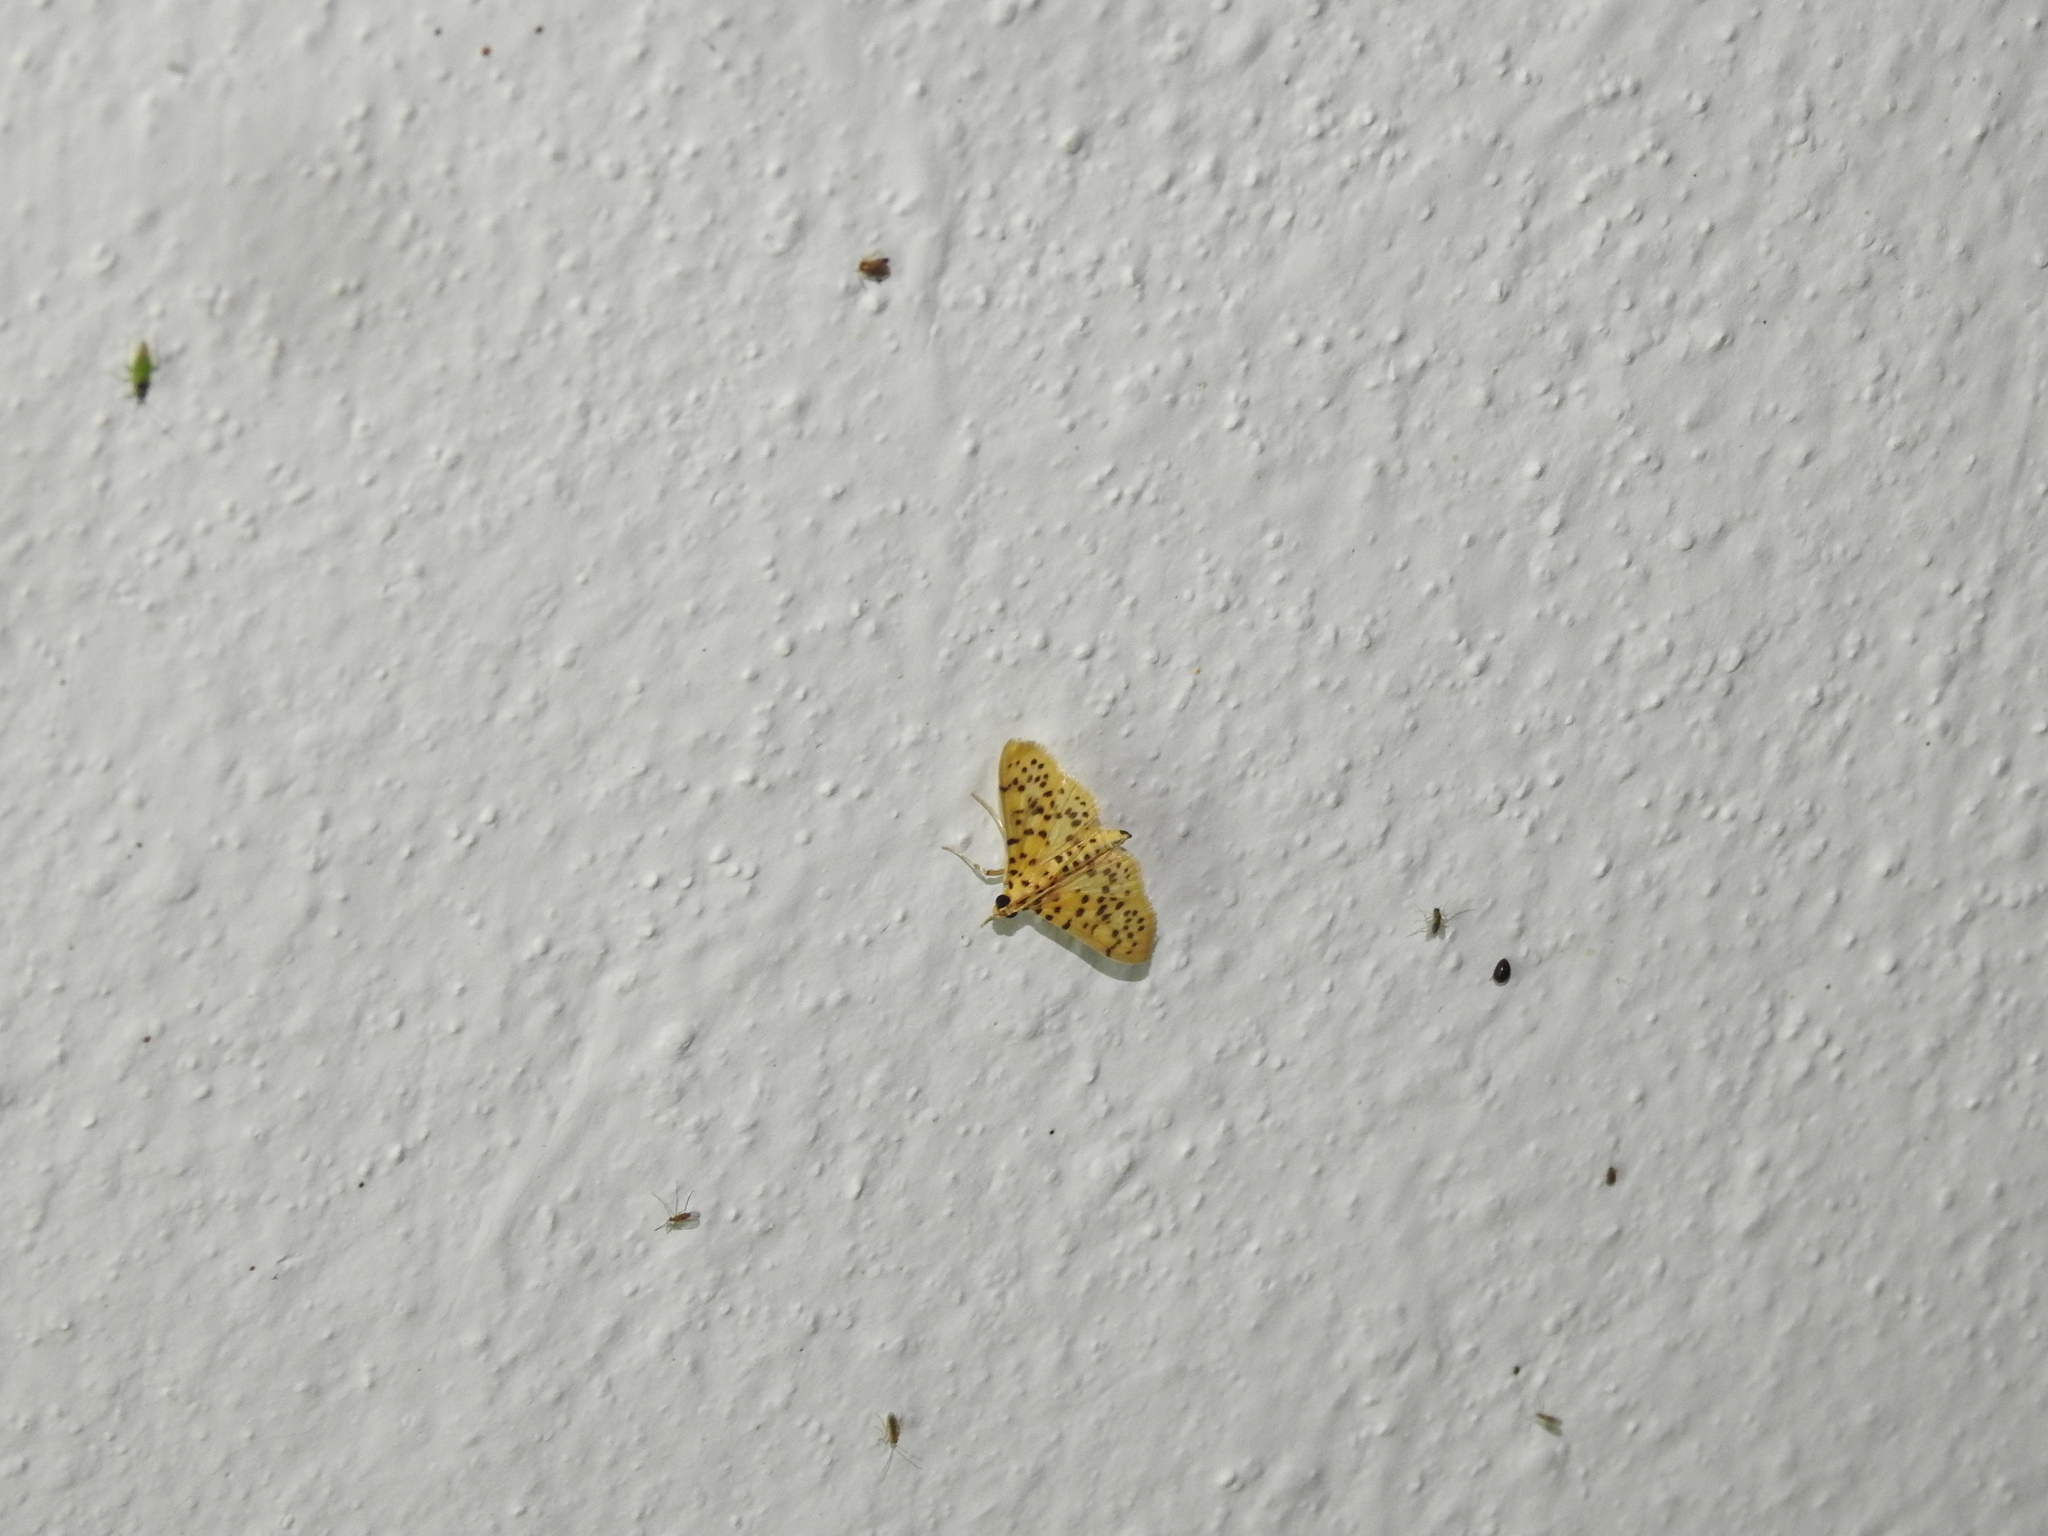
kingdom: Animalia
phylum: Arthropoda
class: Insecta
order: Lepidoptera
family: Crambidae
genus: Conogethes
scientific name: Conogethes punctiferalis
